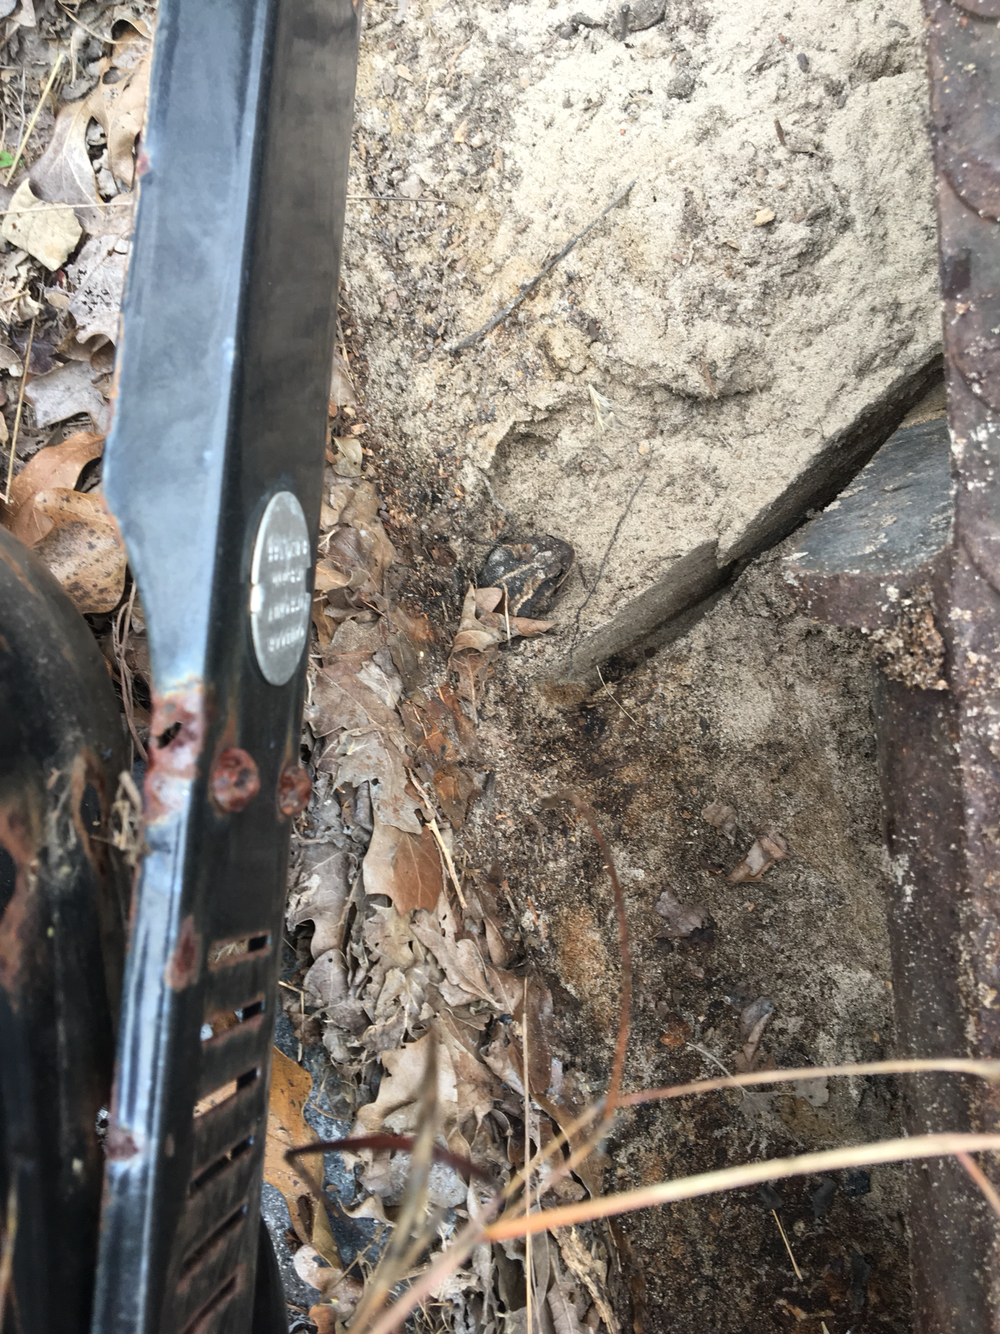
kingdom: Animalia
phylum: Chordata
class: Amphibia
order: Anura
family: Bufonidae
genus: Incilius
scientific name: Incilius nebulifer
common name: Gulf coast toad
